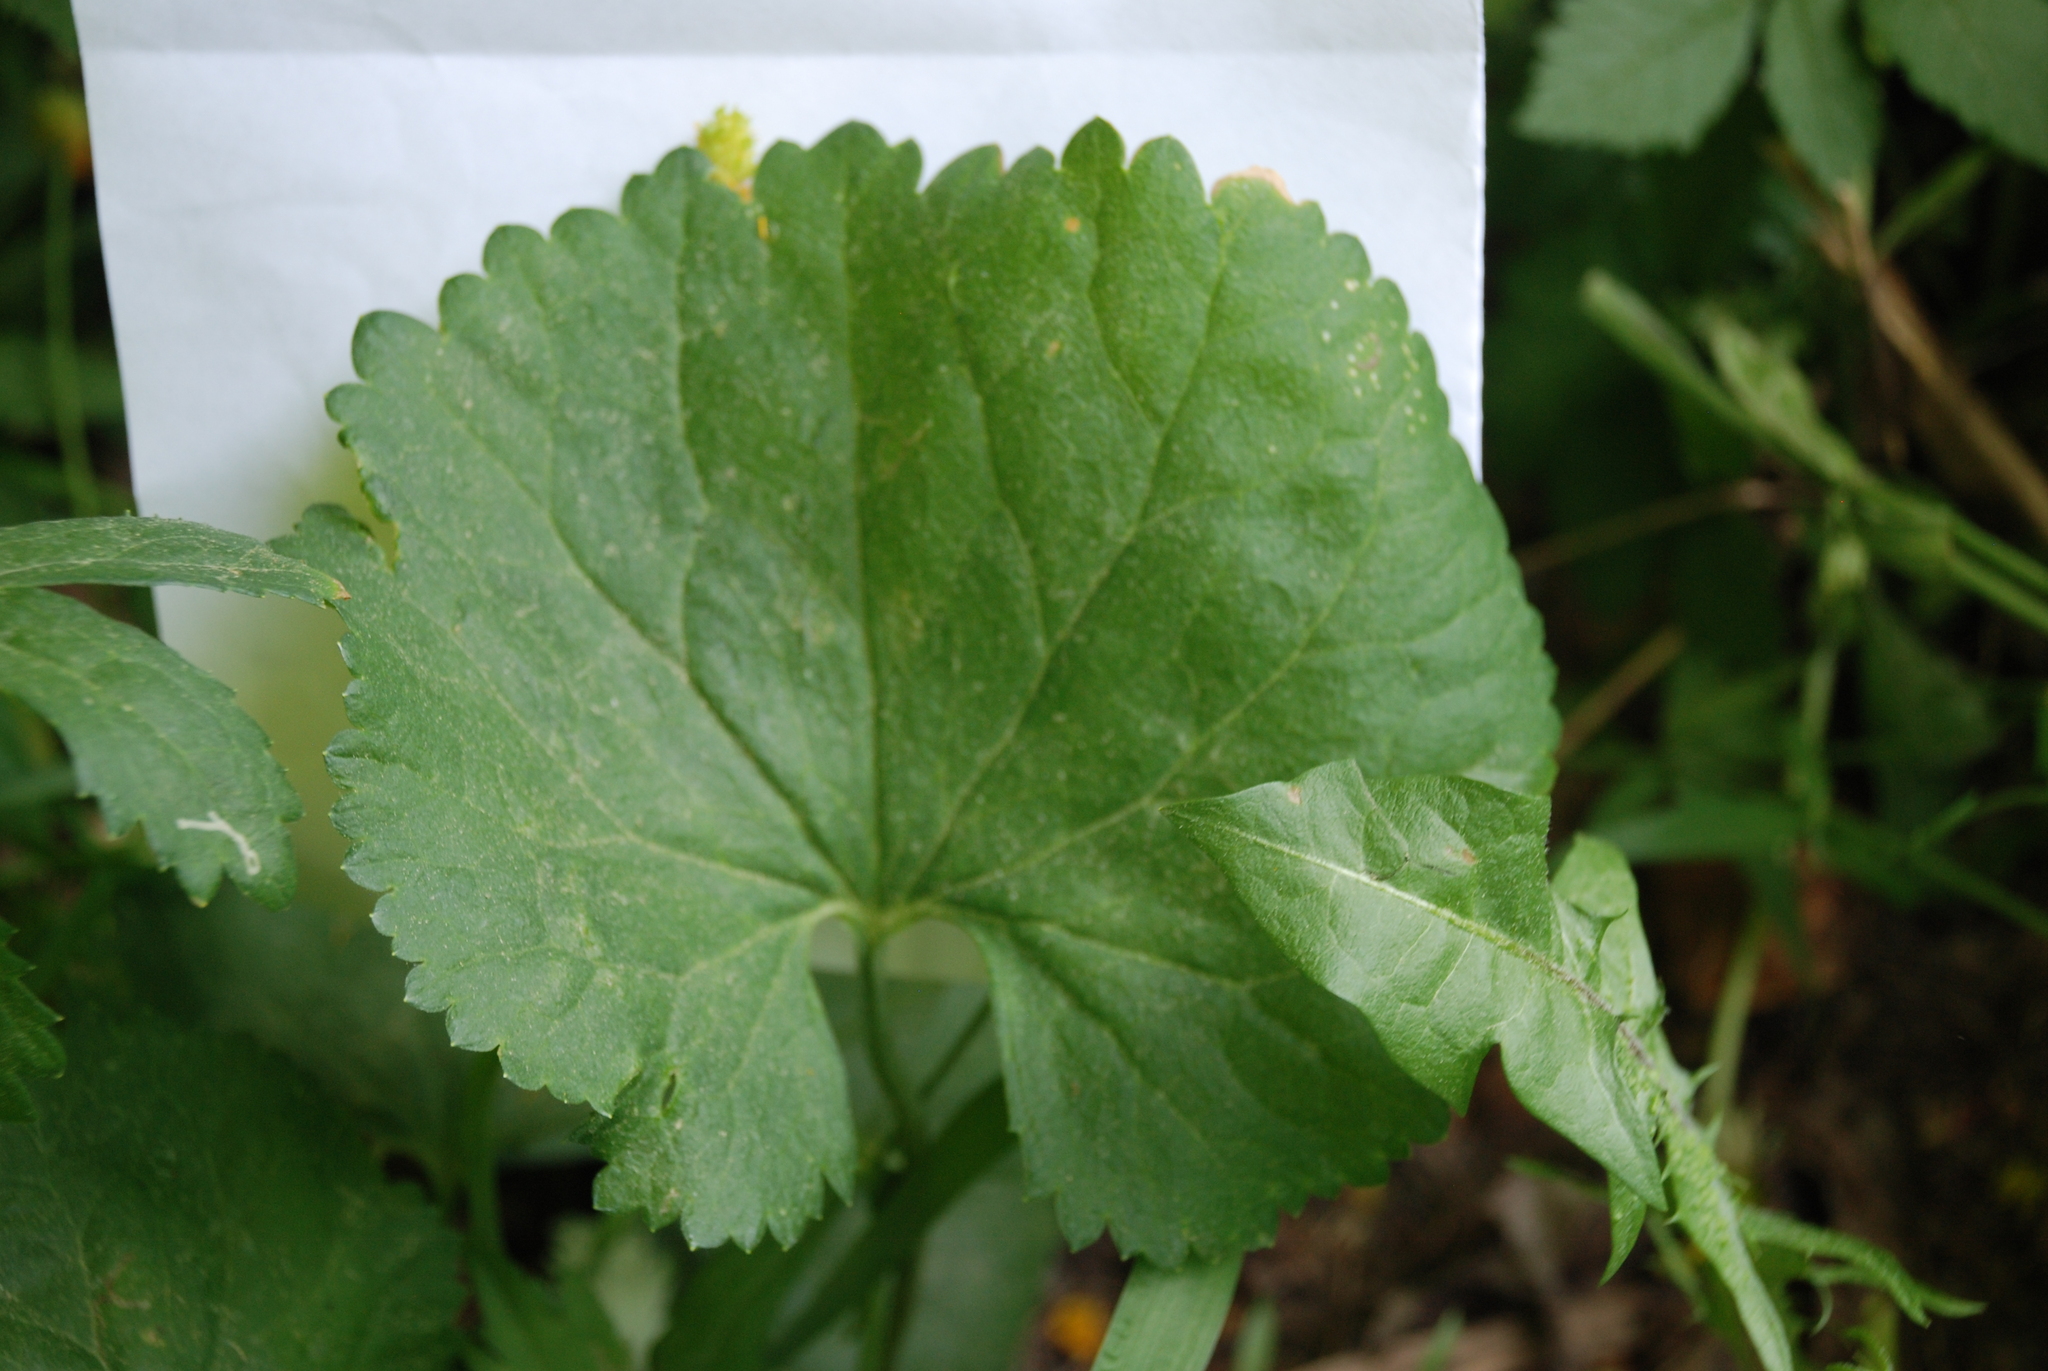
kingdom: Plantae
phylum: Tracheophyta
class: Magnoliopsida
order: Ranunculales
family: Ranunculaceae
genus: Ranunculus
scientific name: Ranunculus cassubicus
